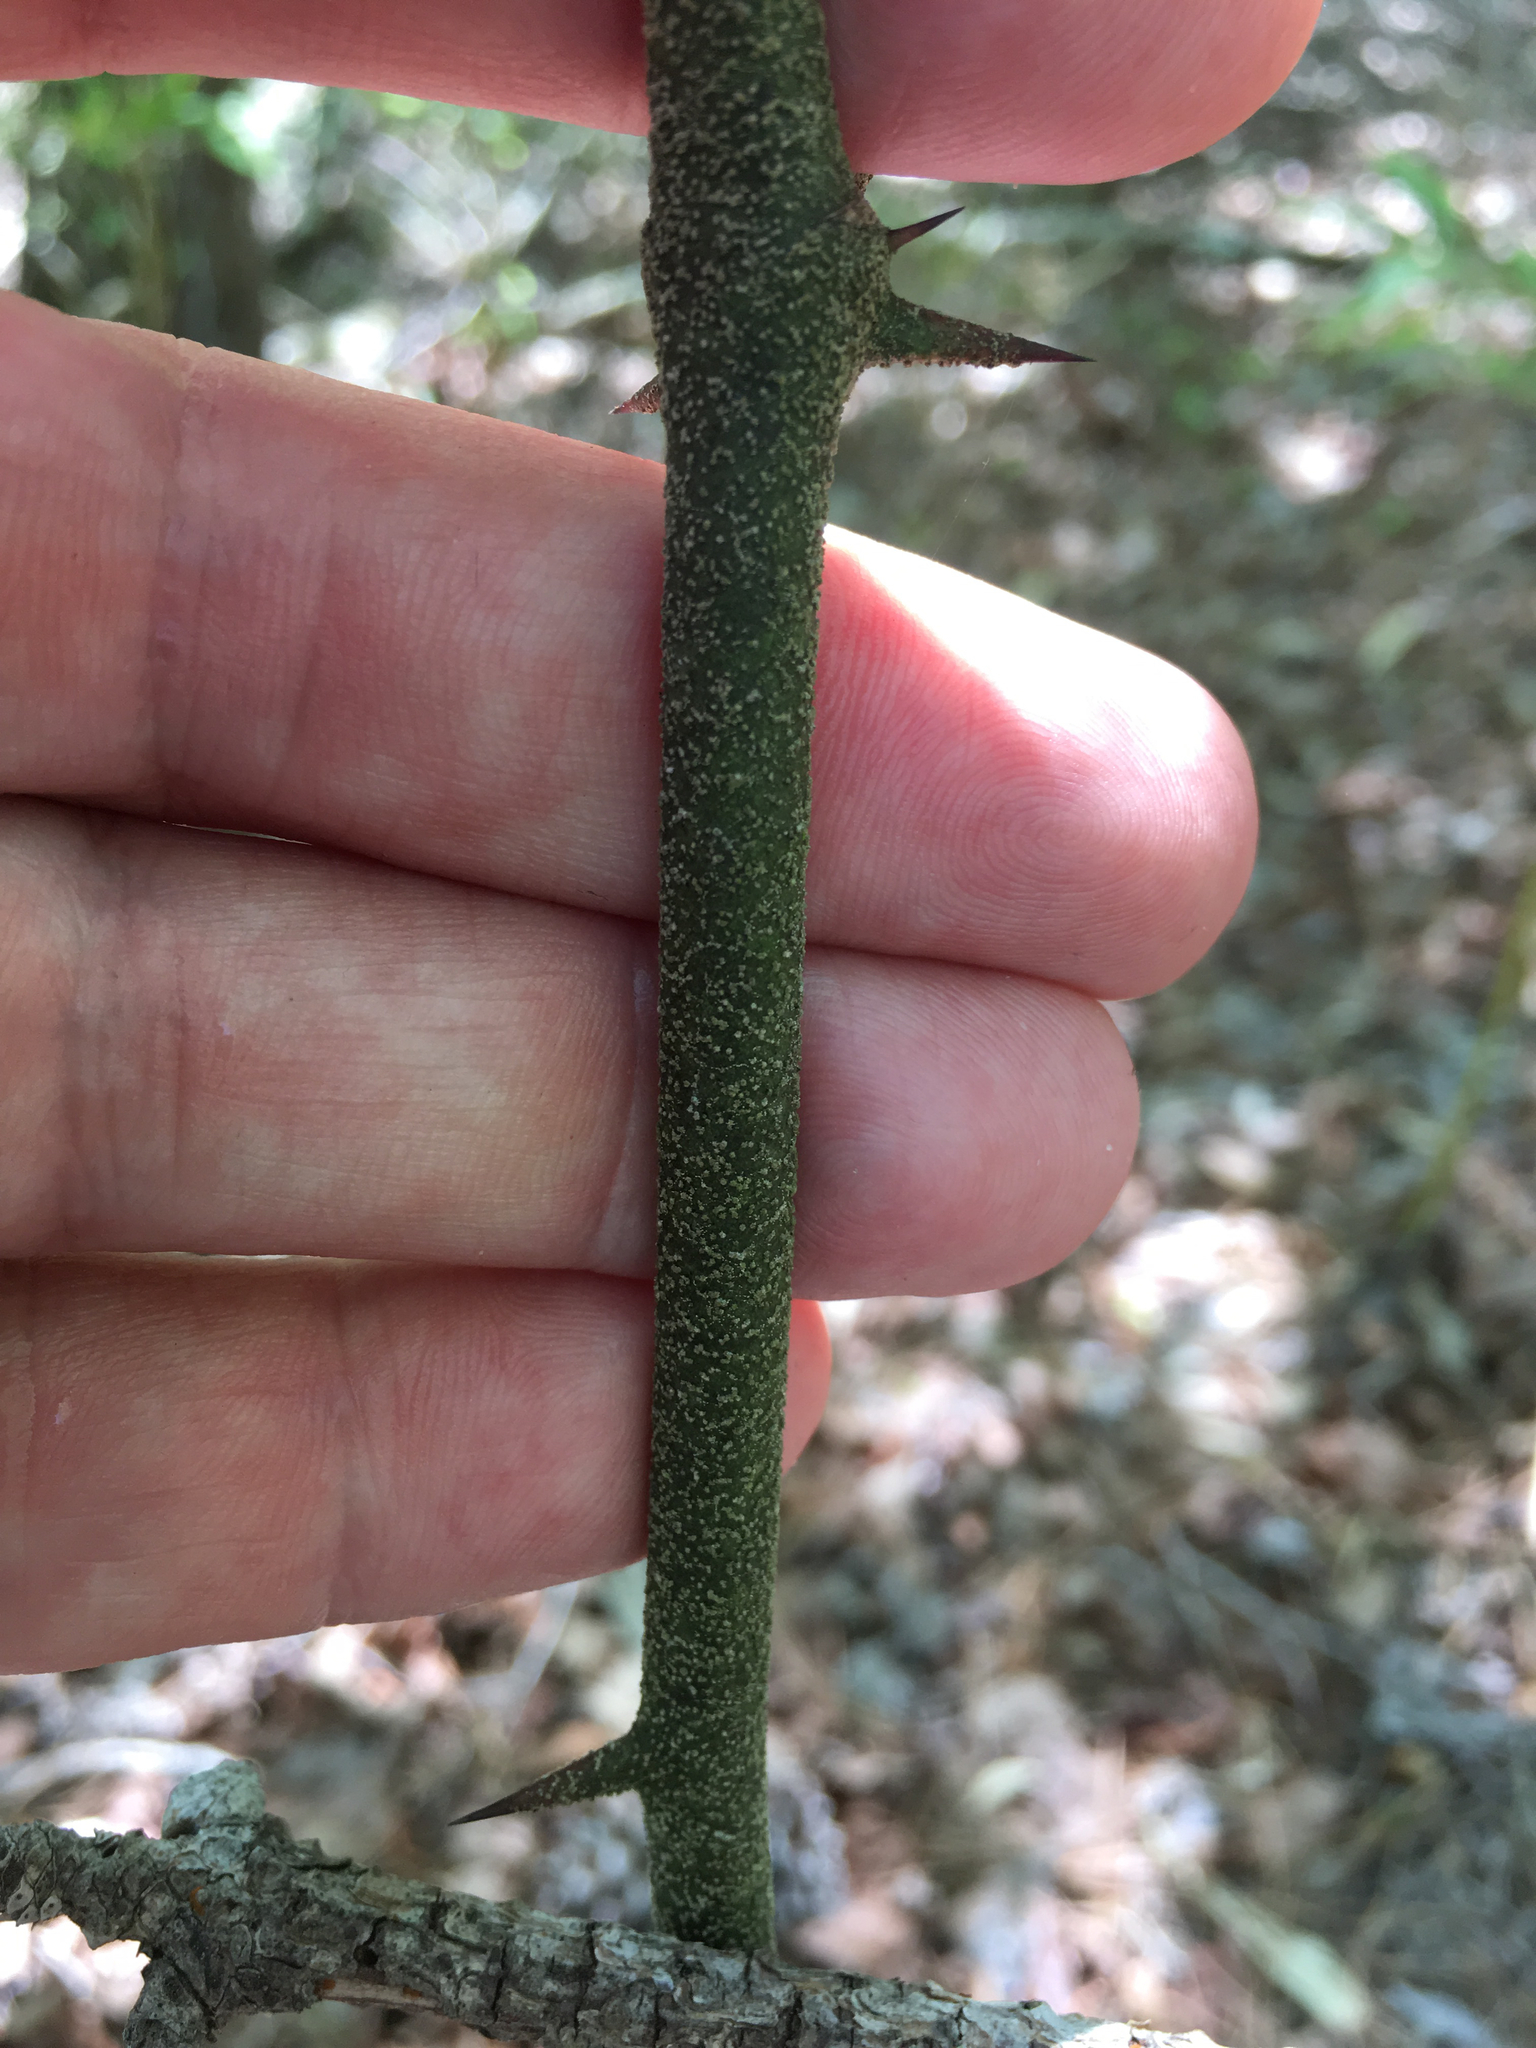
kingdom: Plantae
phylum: Tracheophyta
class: Liliopsida
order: Liliales
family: Smilacaceae
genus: Smilax
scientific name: Smilax bona-nox
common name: Catbrier
